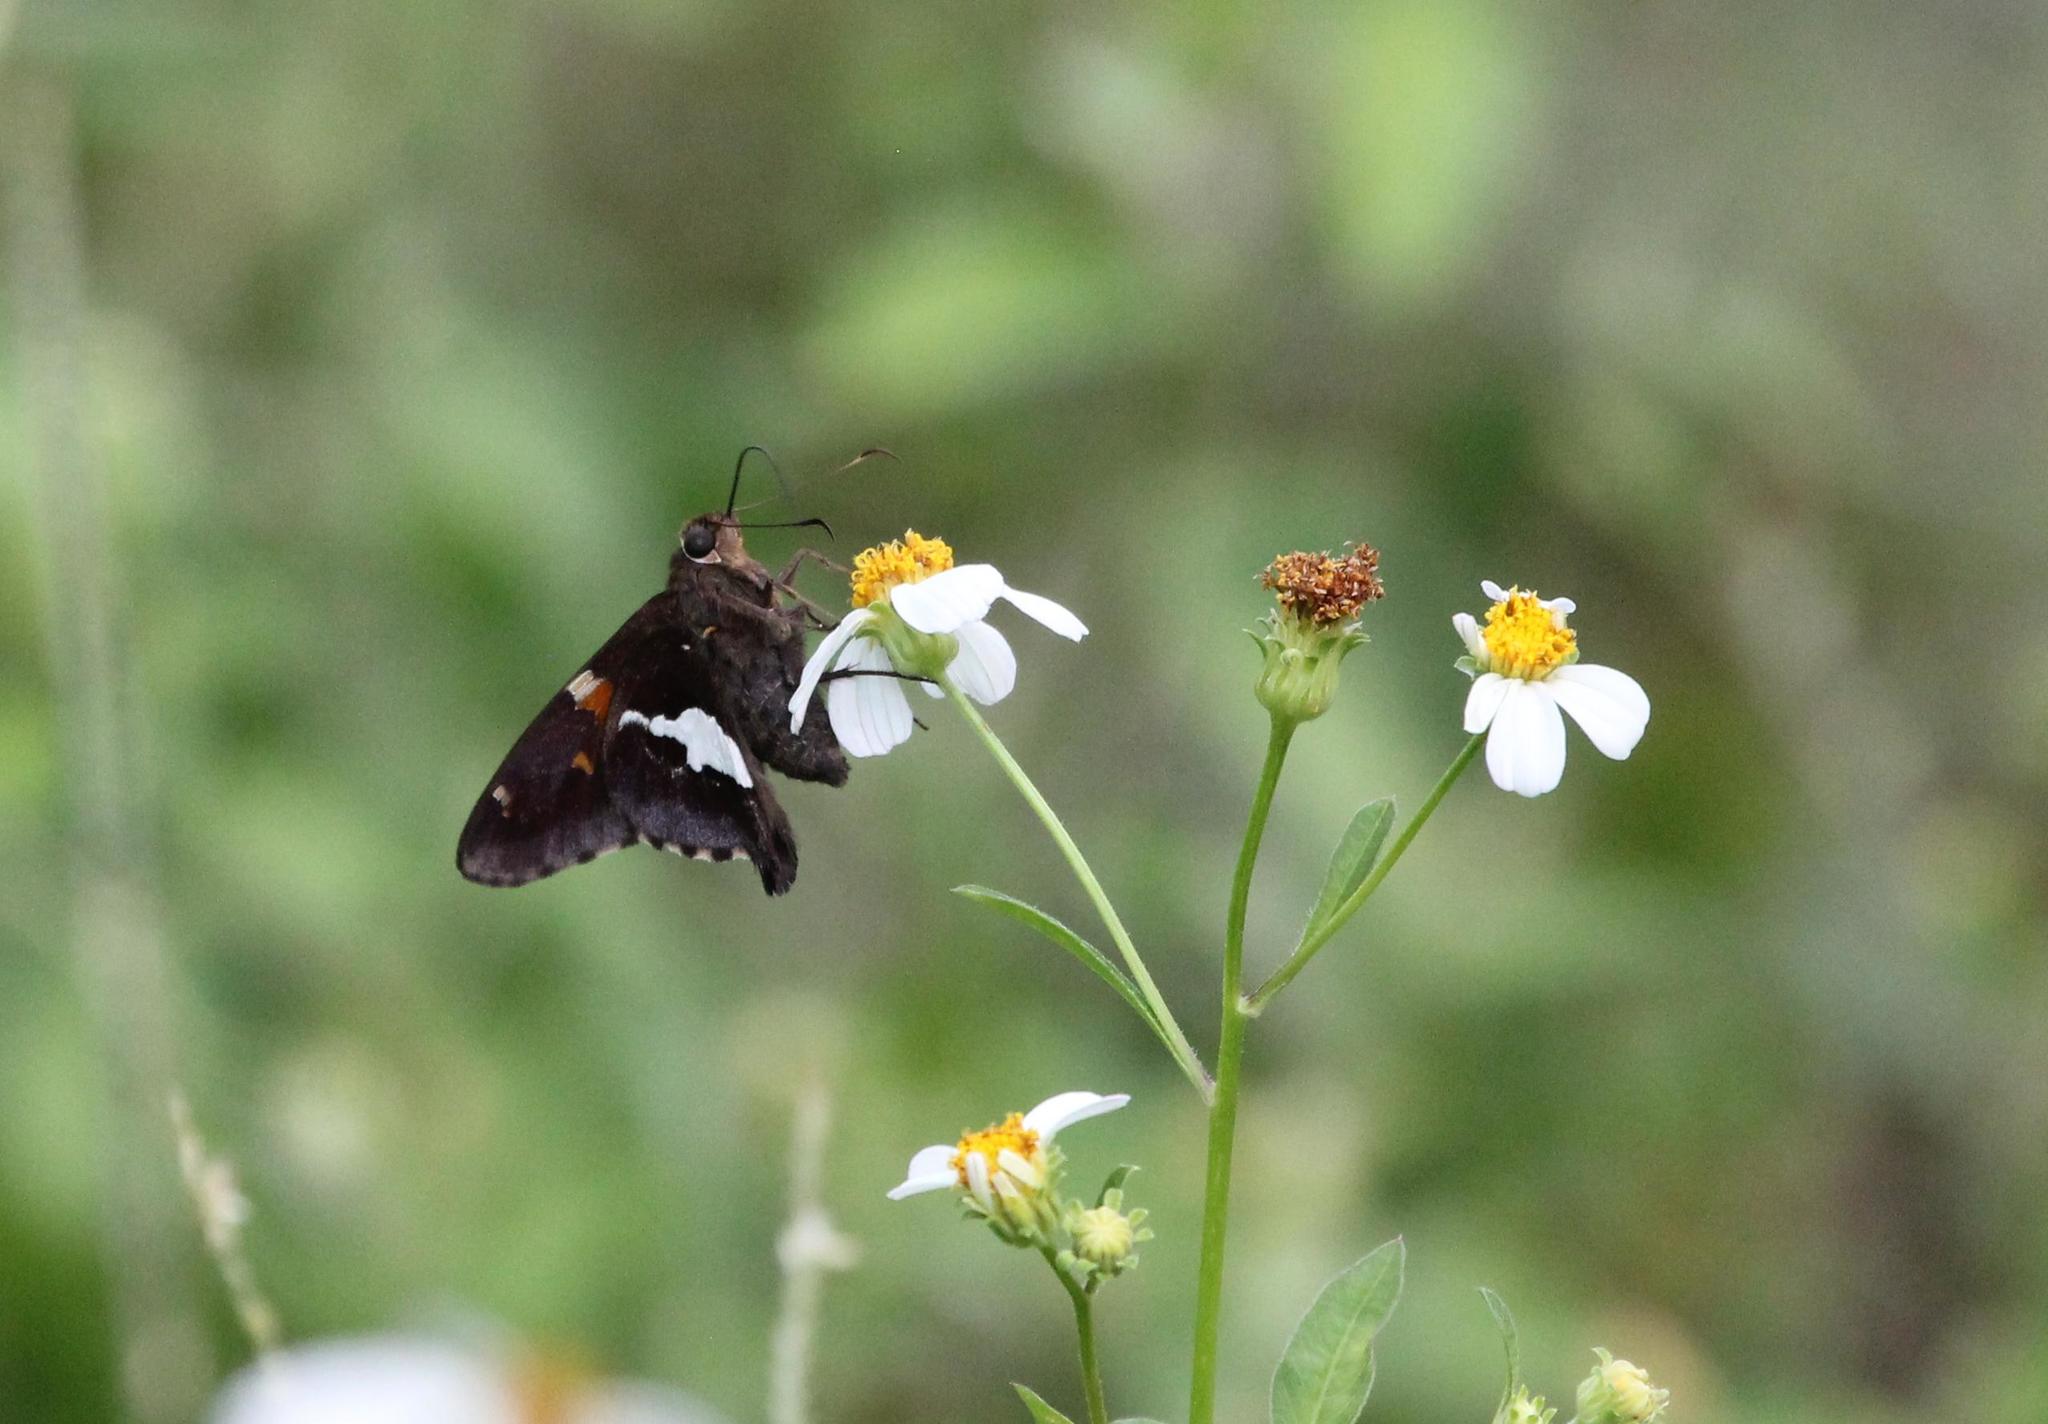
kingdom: Animalia
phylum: Arthropoda
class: Insecta
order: Lepidoptera
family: Hesperiidae
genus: Epargyreus
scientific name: Epargyreus clarus
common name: Silver-spotted skipper
